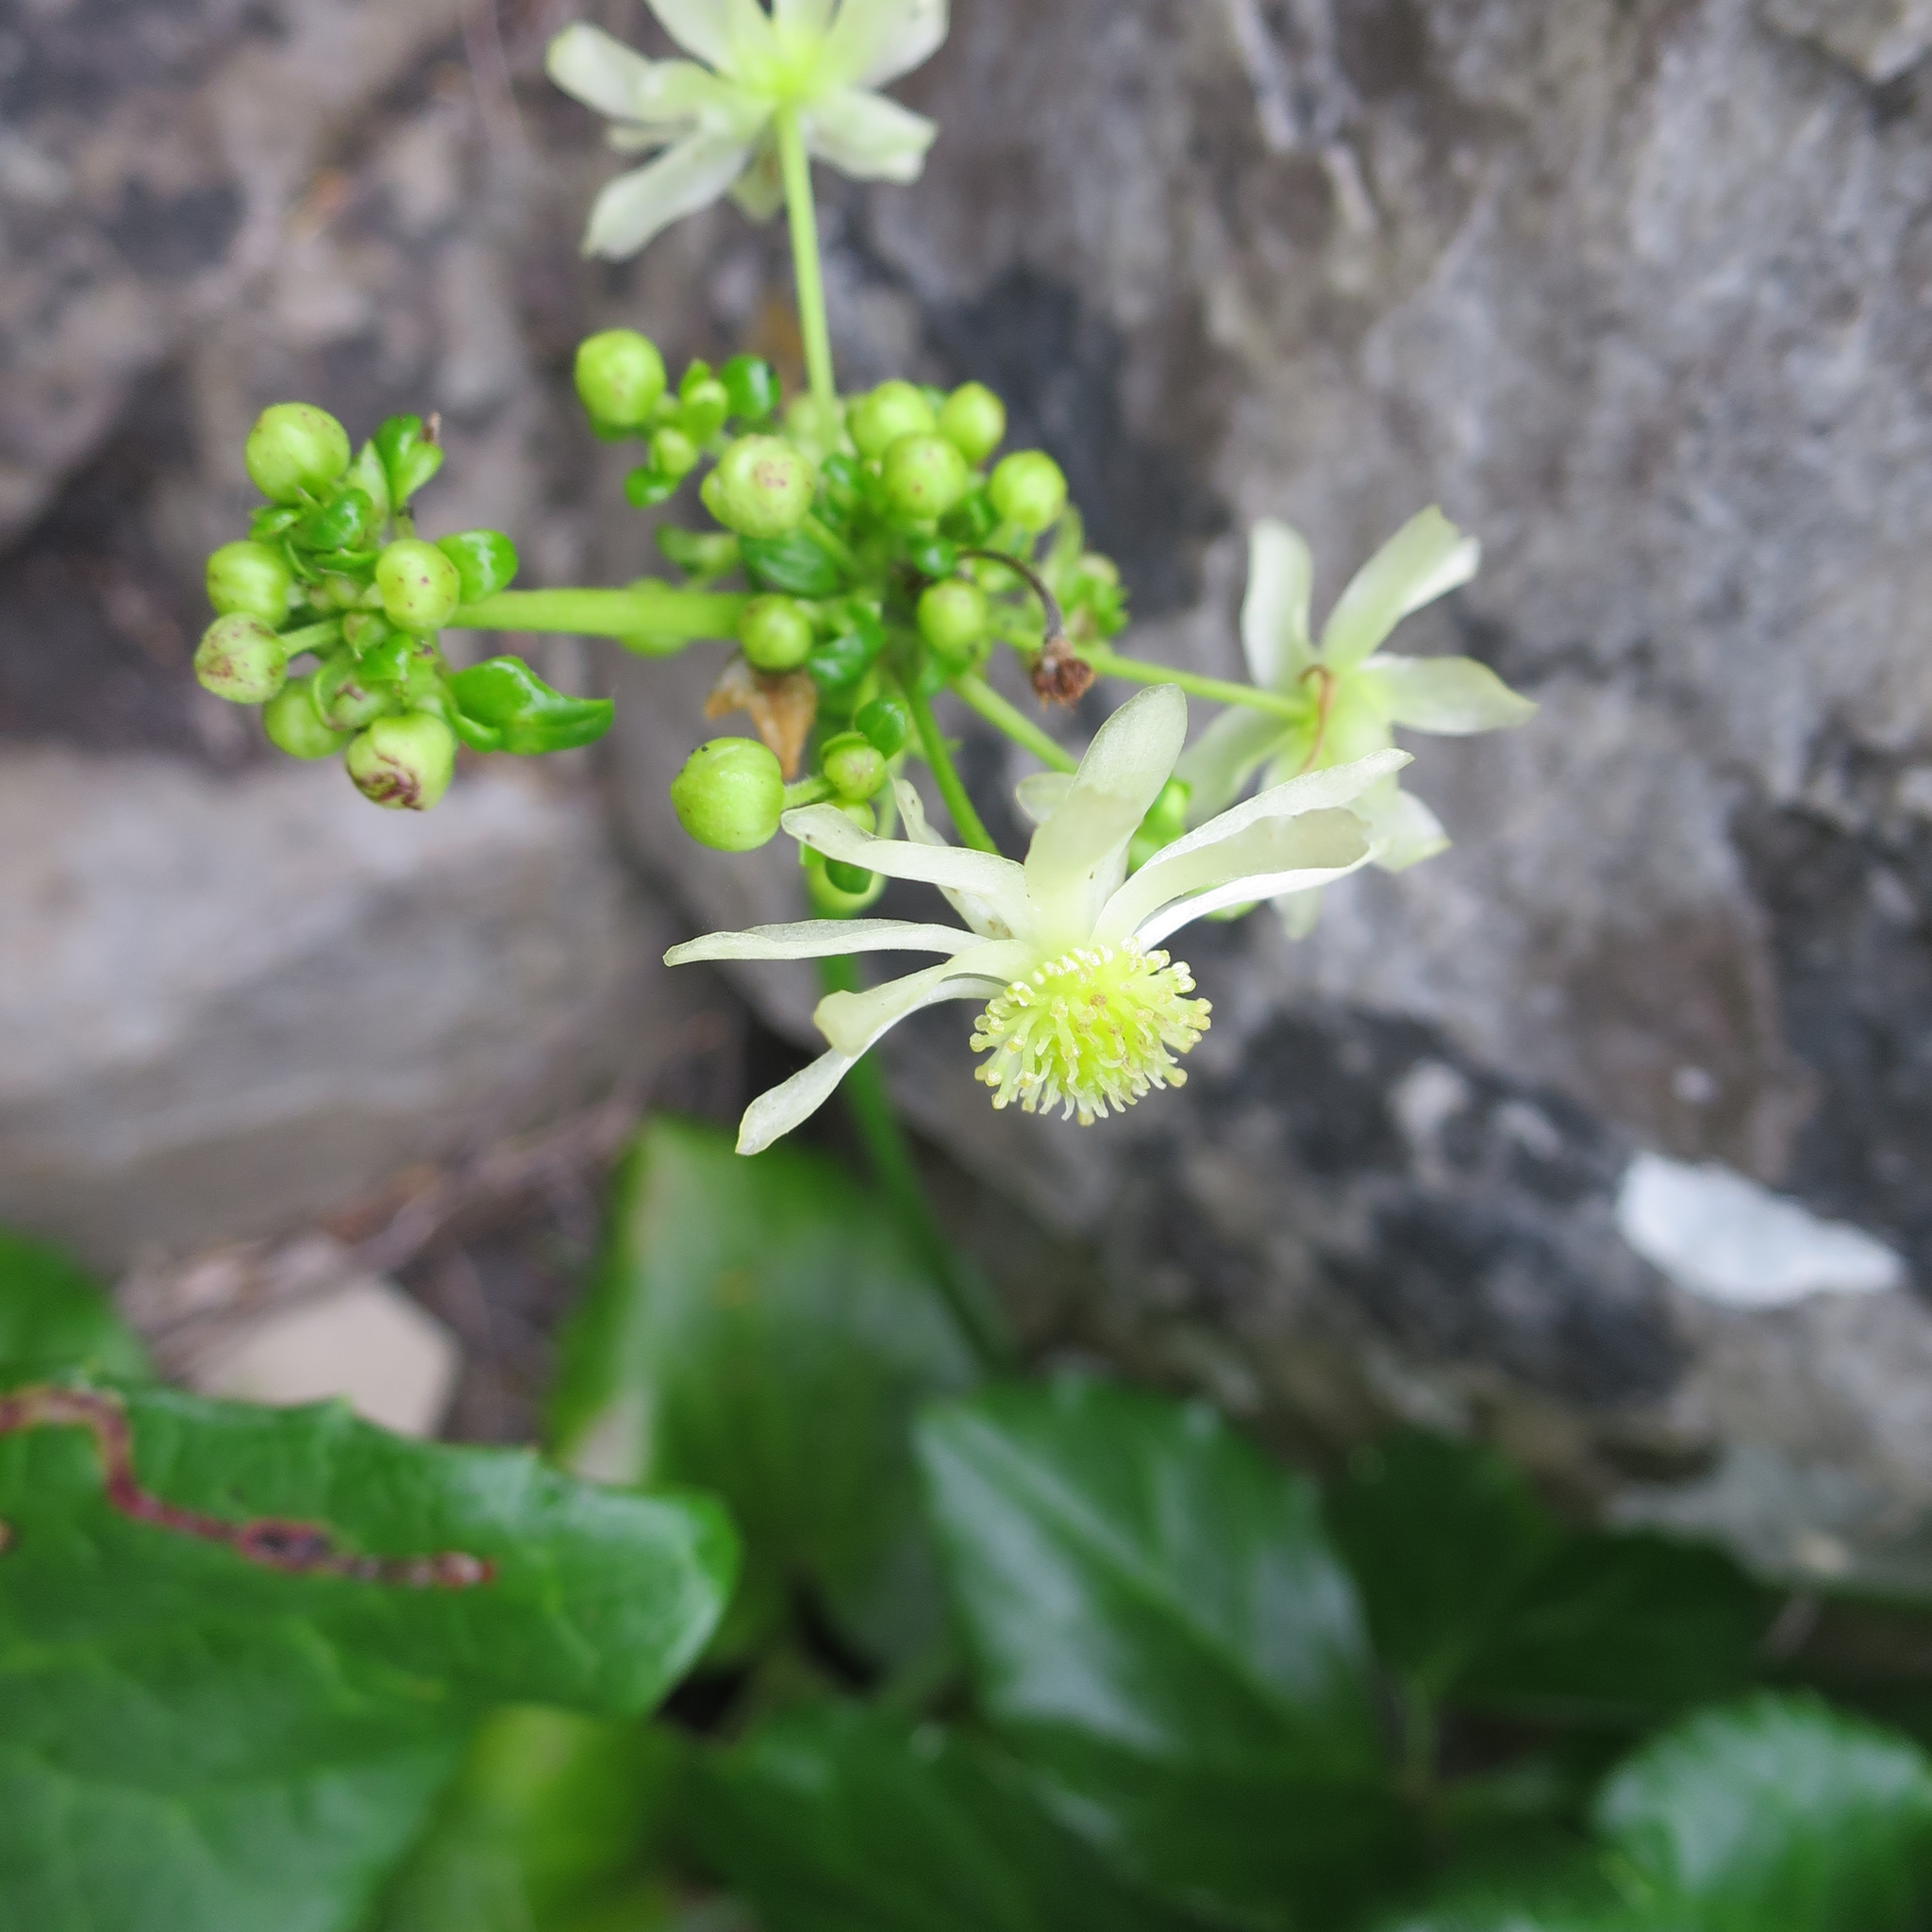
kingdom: Plantae
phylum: Tracheophyta
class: Magnoliopsida
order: Ranunculales
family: Ranunculaceae
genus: Knowltonia
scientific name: Knowltonia vesicatoria
